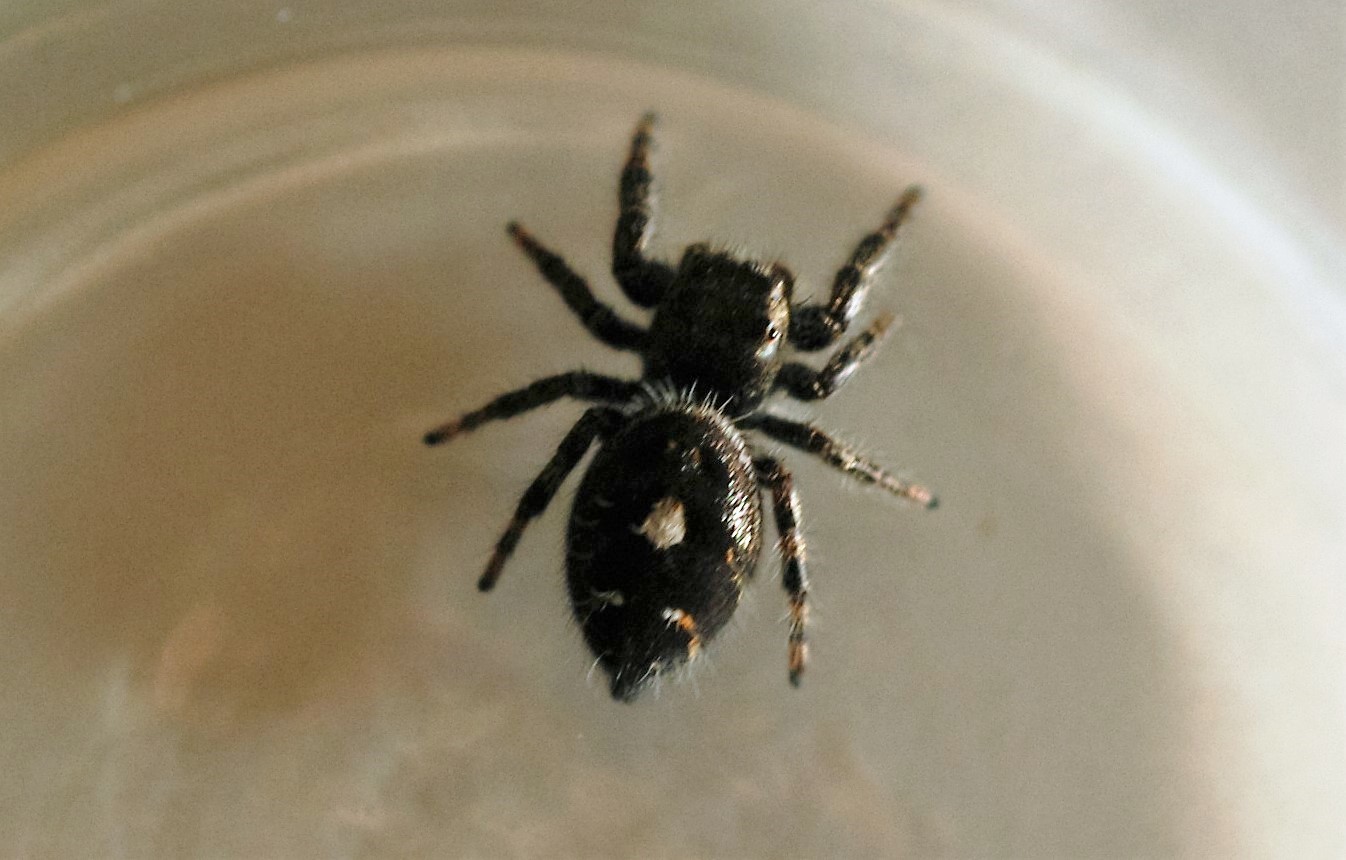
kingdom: Animalia
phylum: Arthropoda
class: Arachnida
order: Araneae
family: Salticidae
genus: Phidippus
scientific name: Phidippus audax
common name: Bold jumper
